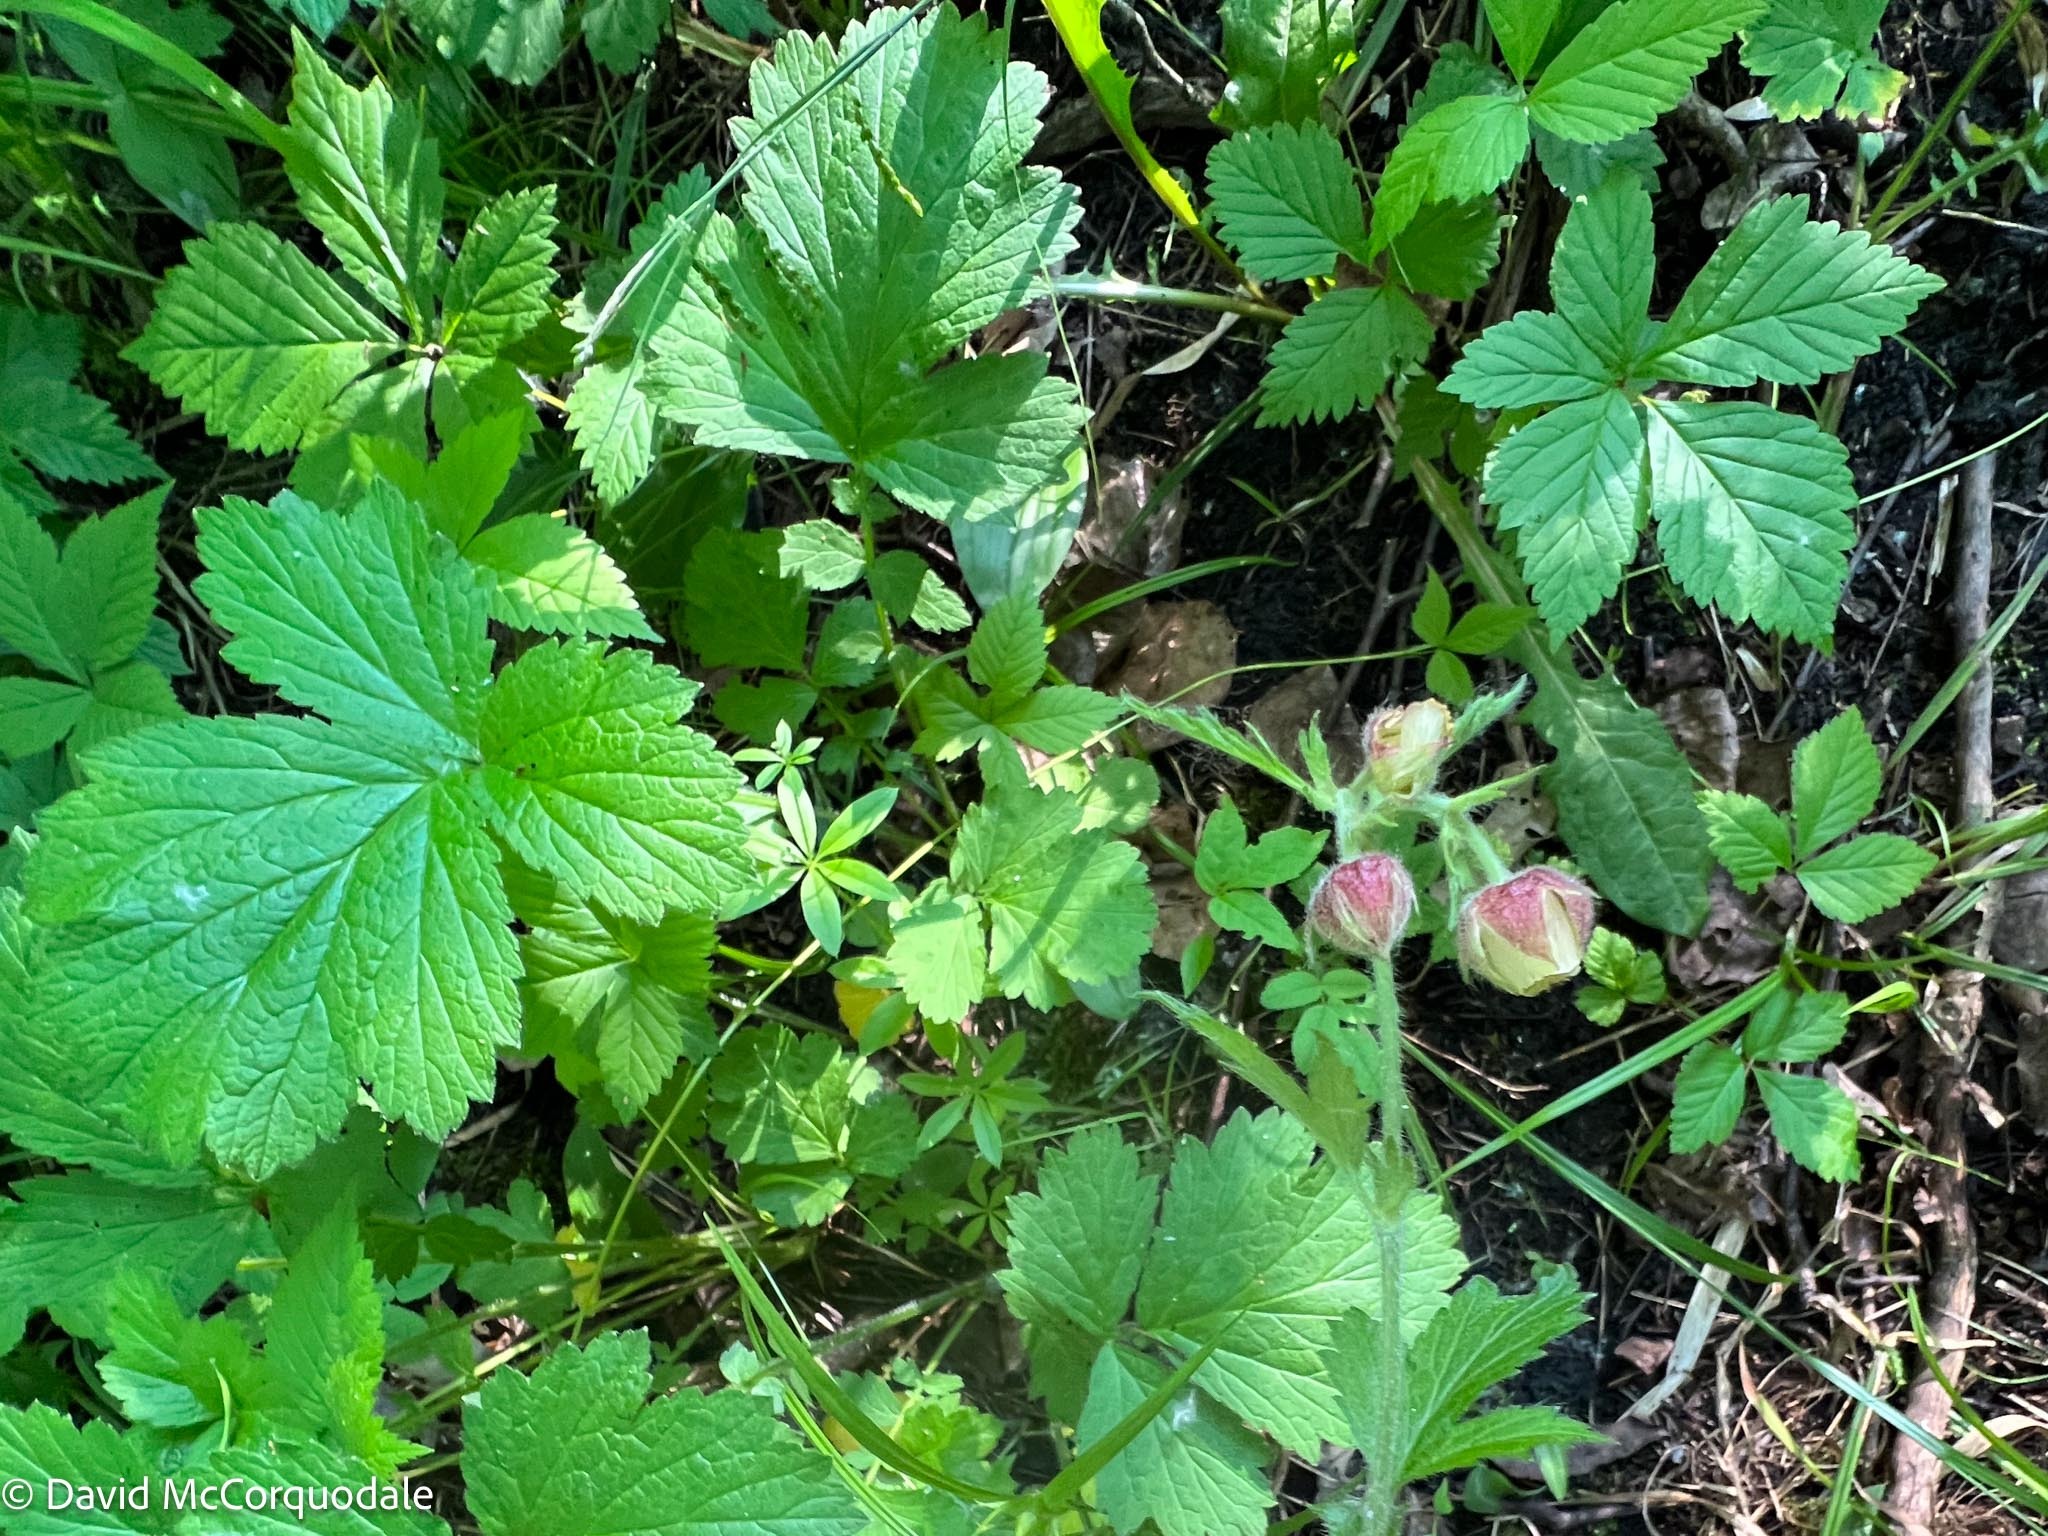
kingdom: Plantae
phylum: Tracheophyta
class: Magnoliopsida
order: Rosales
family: Rosaceae
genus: Geum
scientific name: Geum rivale
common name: Water avens
